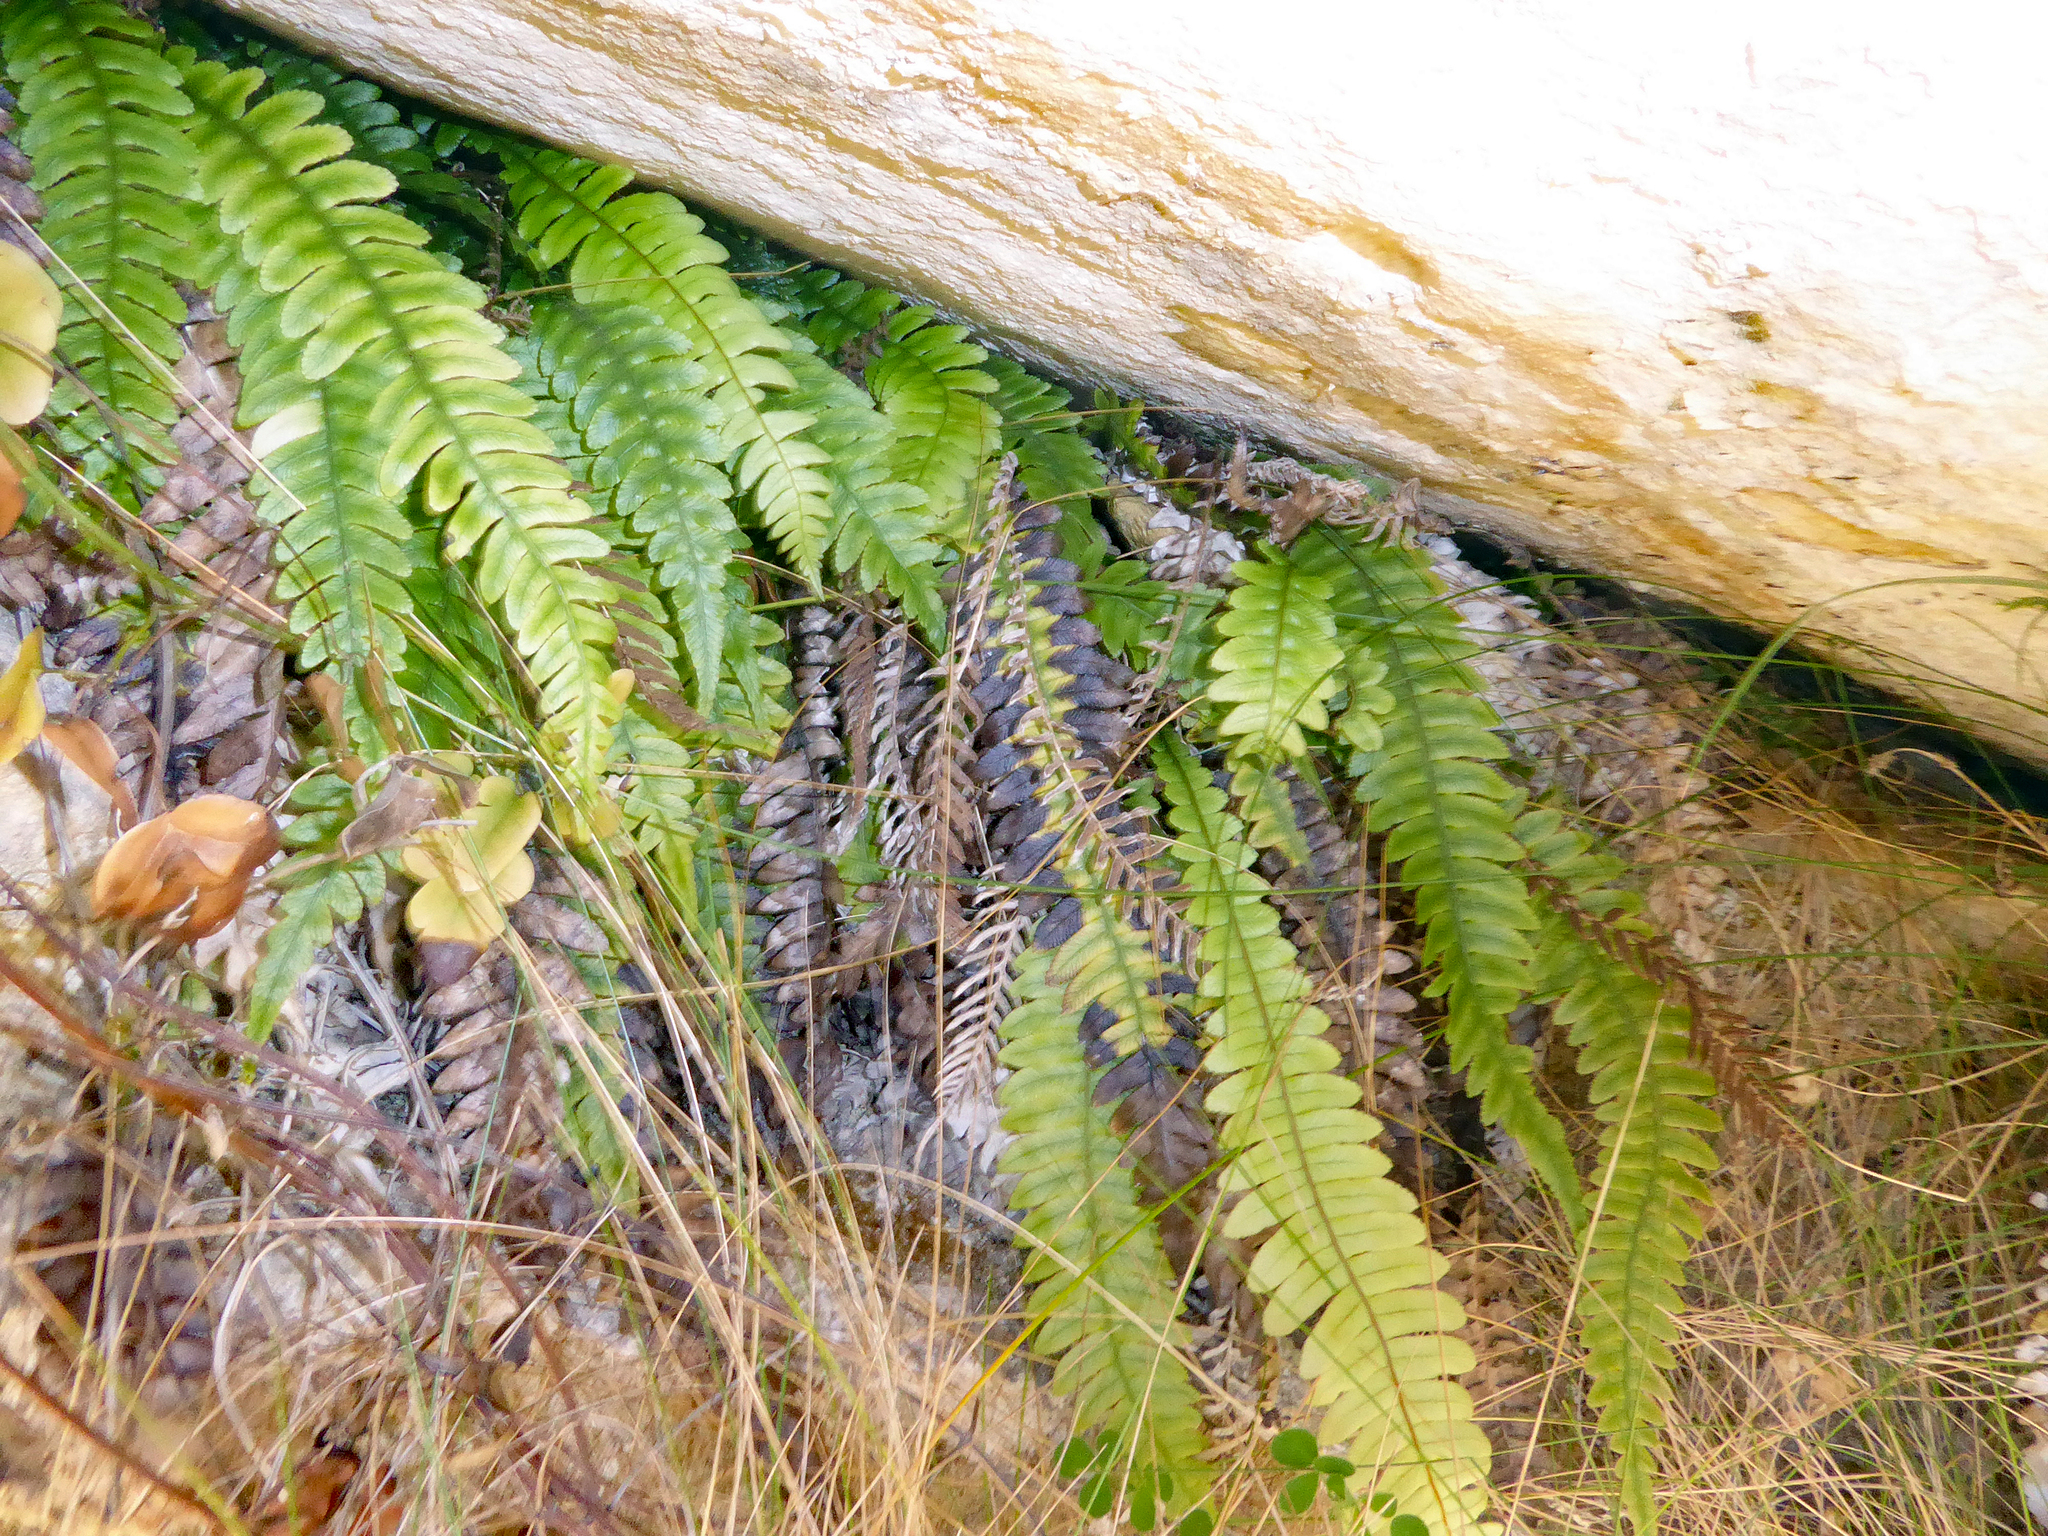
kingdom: Plantae
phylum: Tracheophyta
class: Polypodiopsida
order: Polypodiales
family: Blechnaceae
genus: Austroblechnum
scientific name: Austroblechnum lanceolatum
